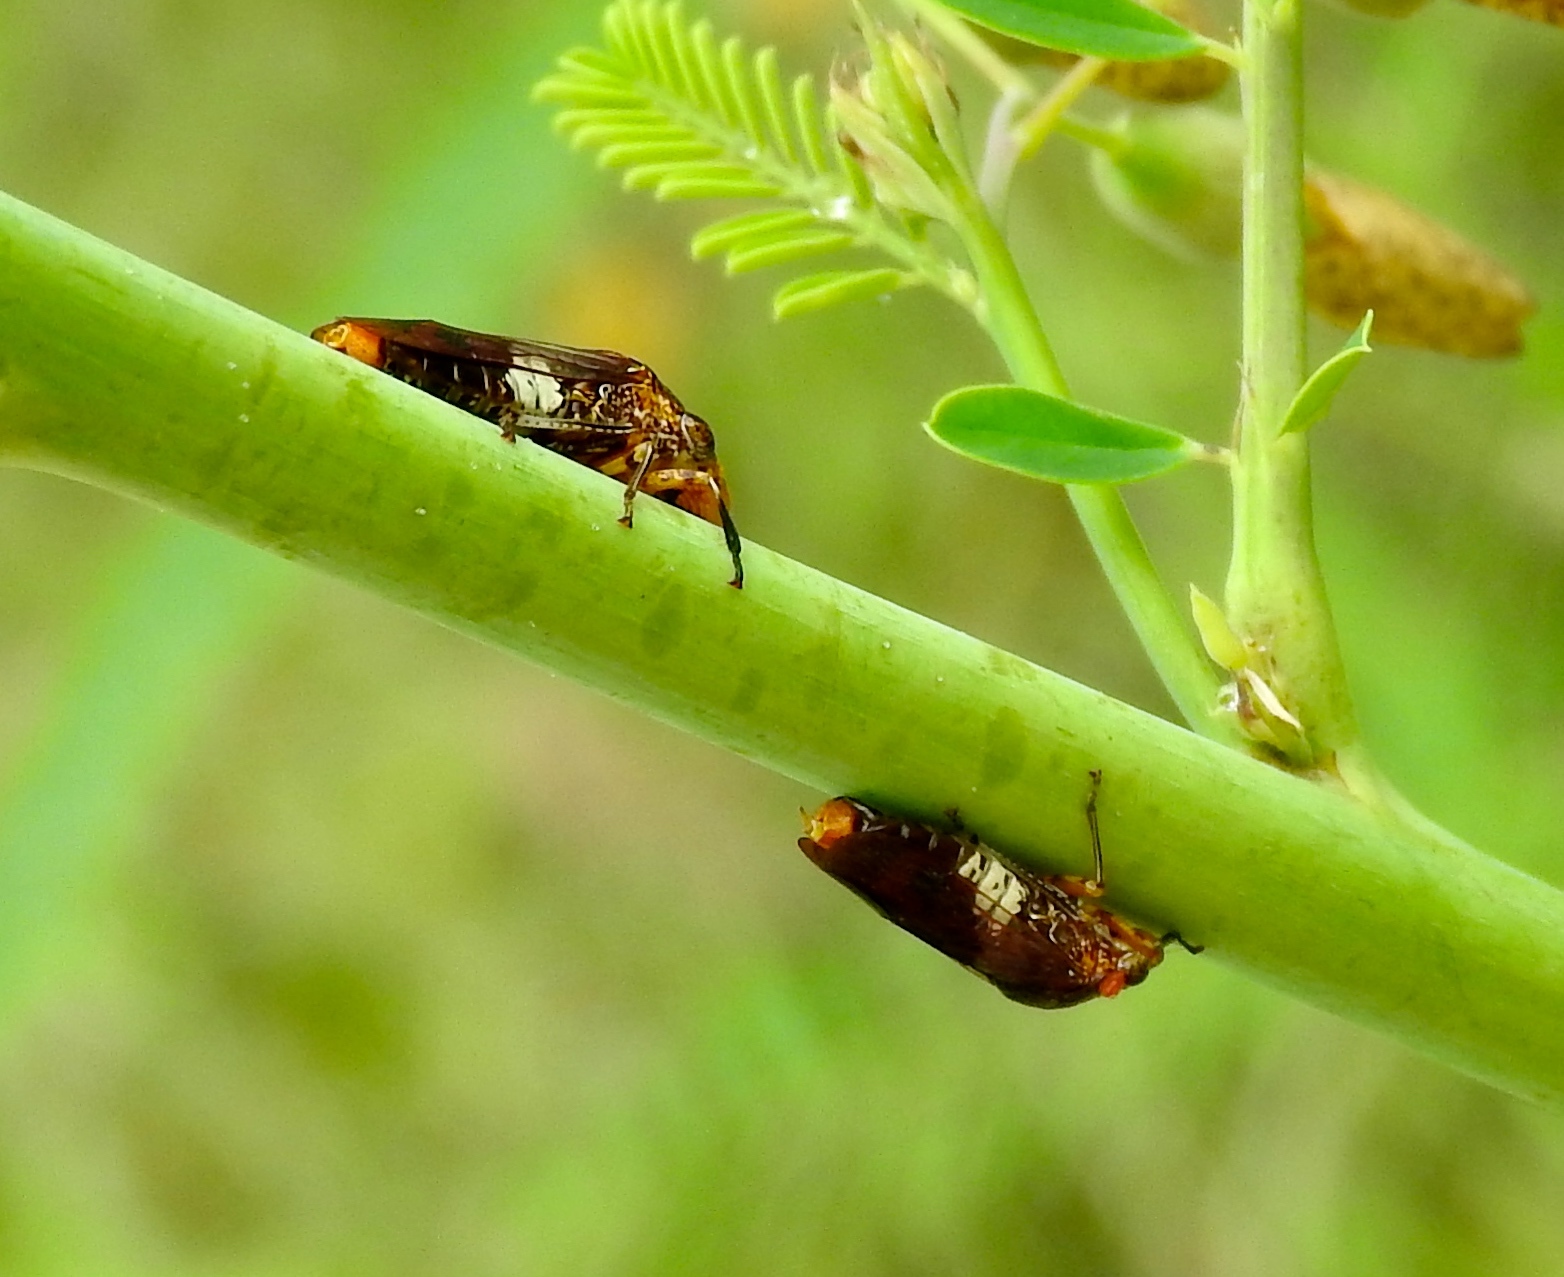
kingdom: Animalia
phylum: Arthropoda
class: Insecta
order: Hemiptera
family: Cicadellidae
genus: Homalodisca
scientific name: Homalodisca ichthyocephala
